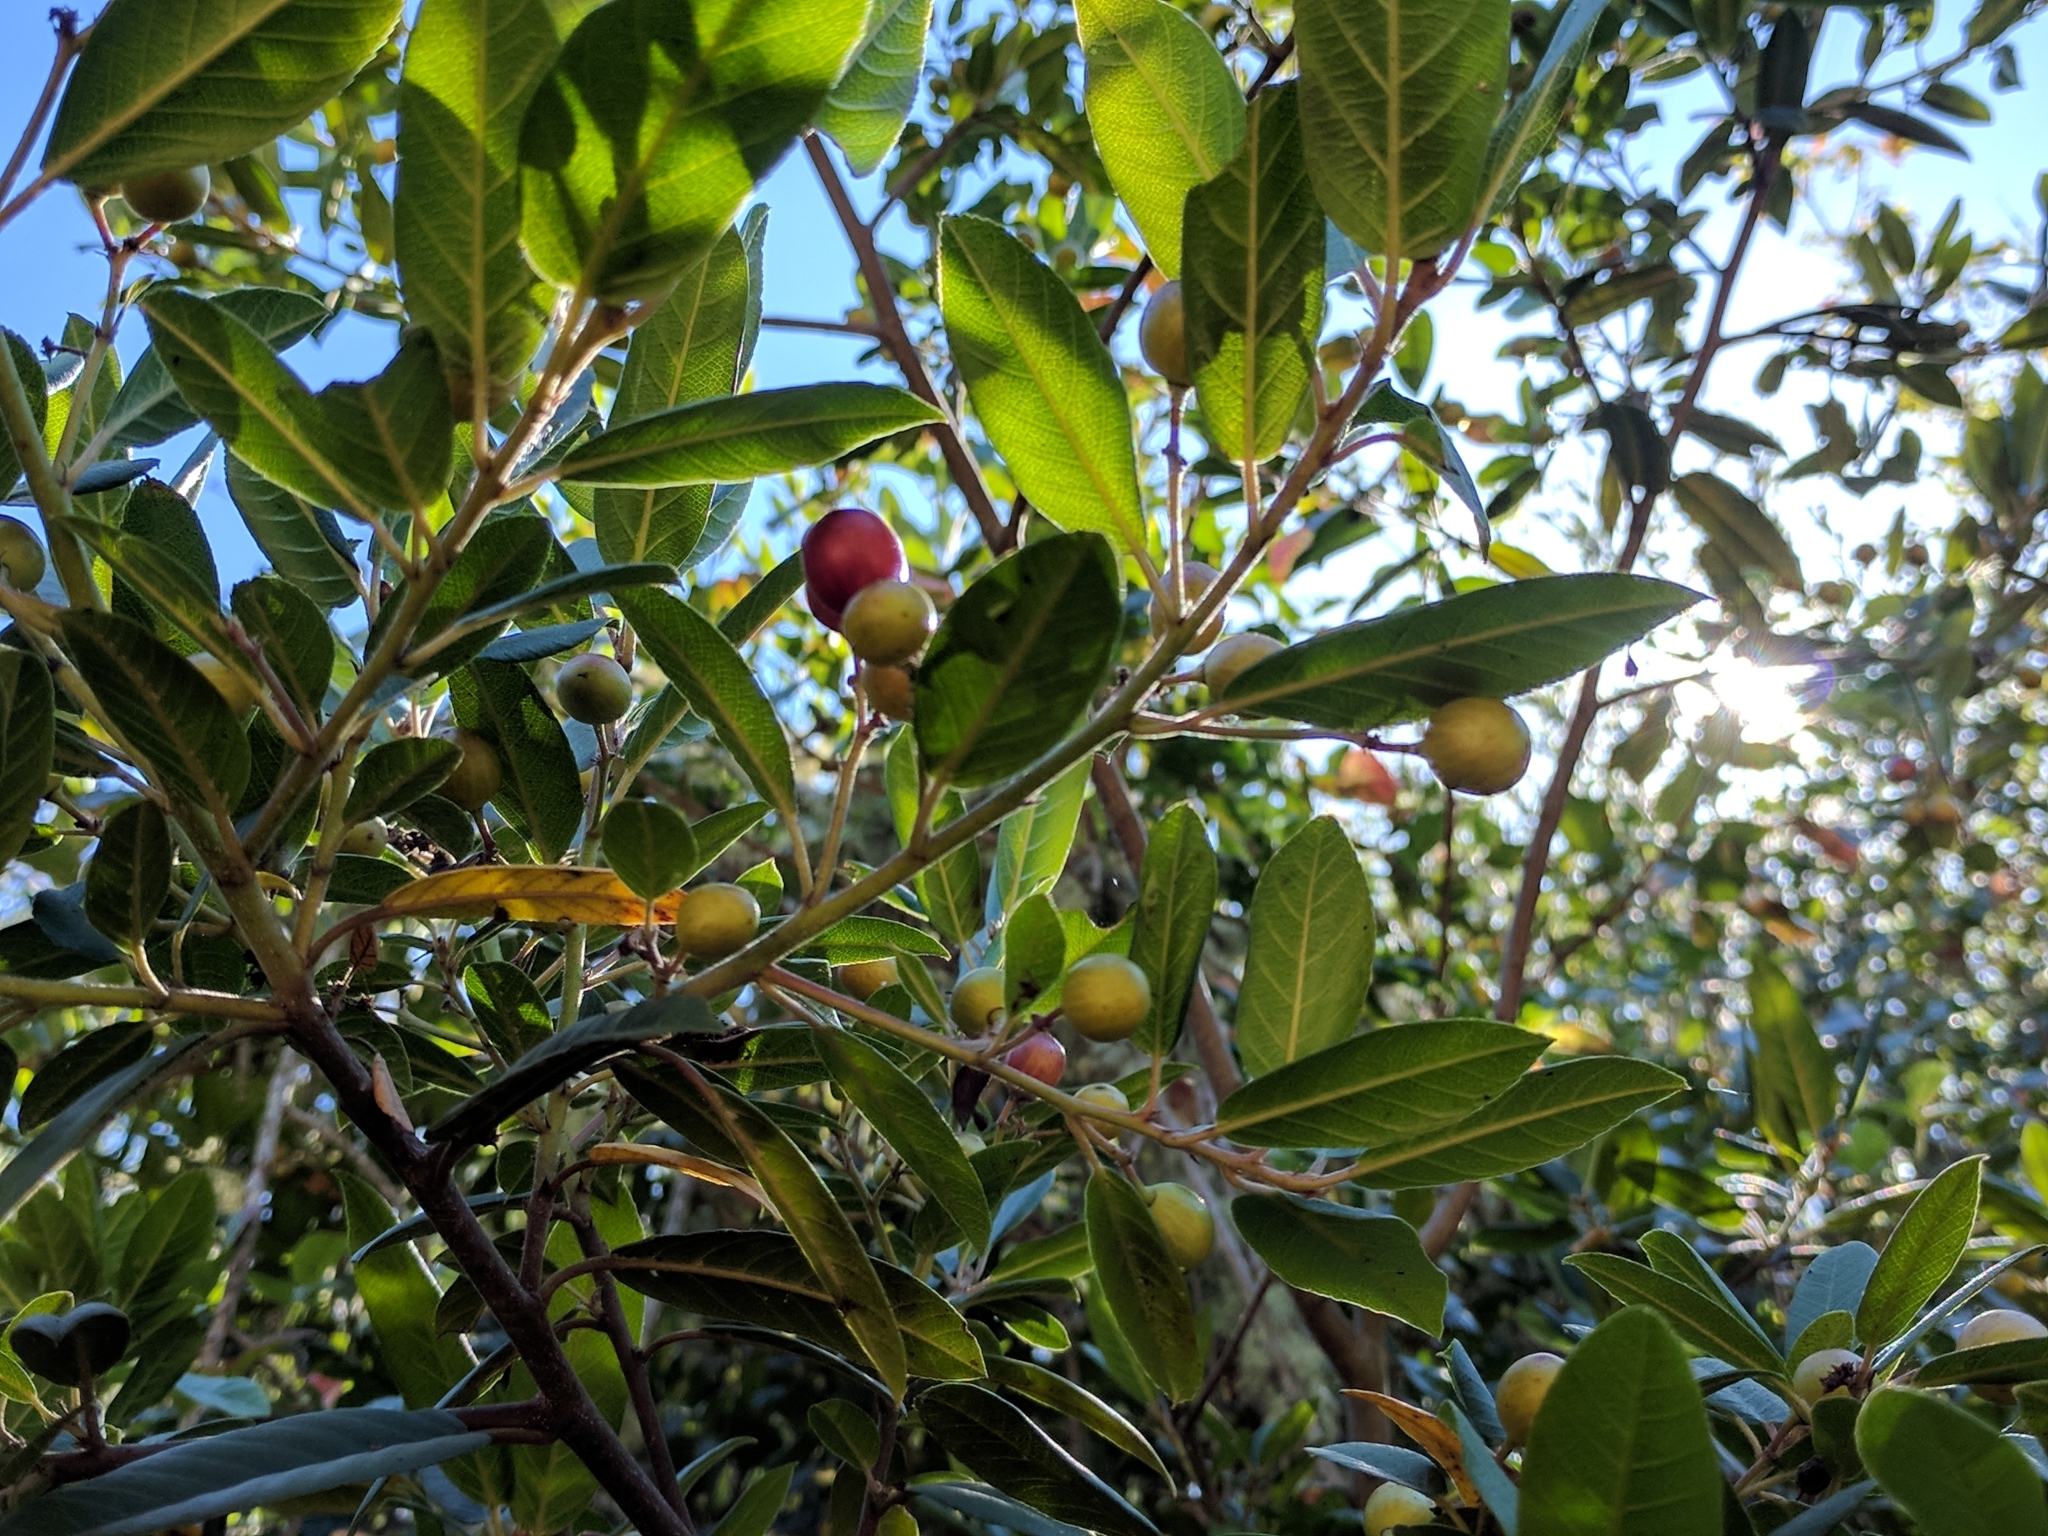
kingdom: Plantae
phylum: Tracheophyta
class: Magnoliopsida
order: Rosales
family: Rhamnaceae
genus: Frangula
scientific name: Frangula californica
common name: California buckthorn
